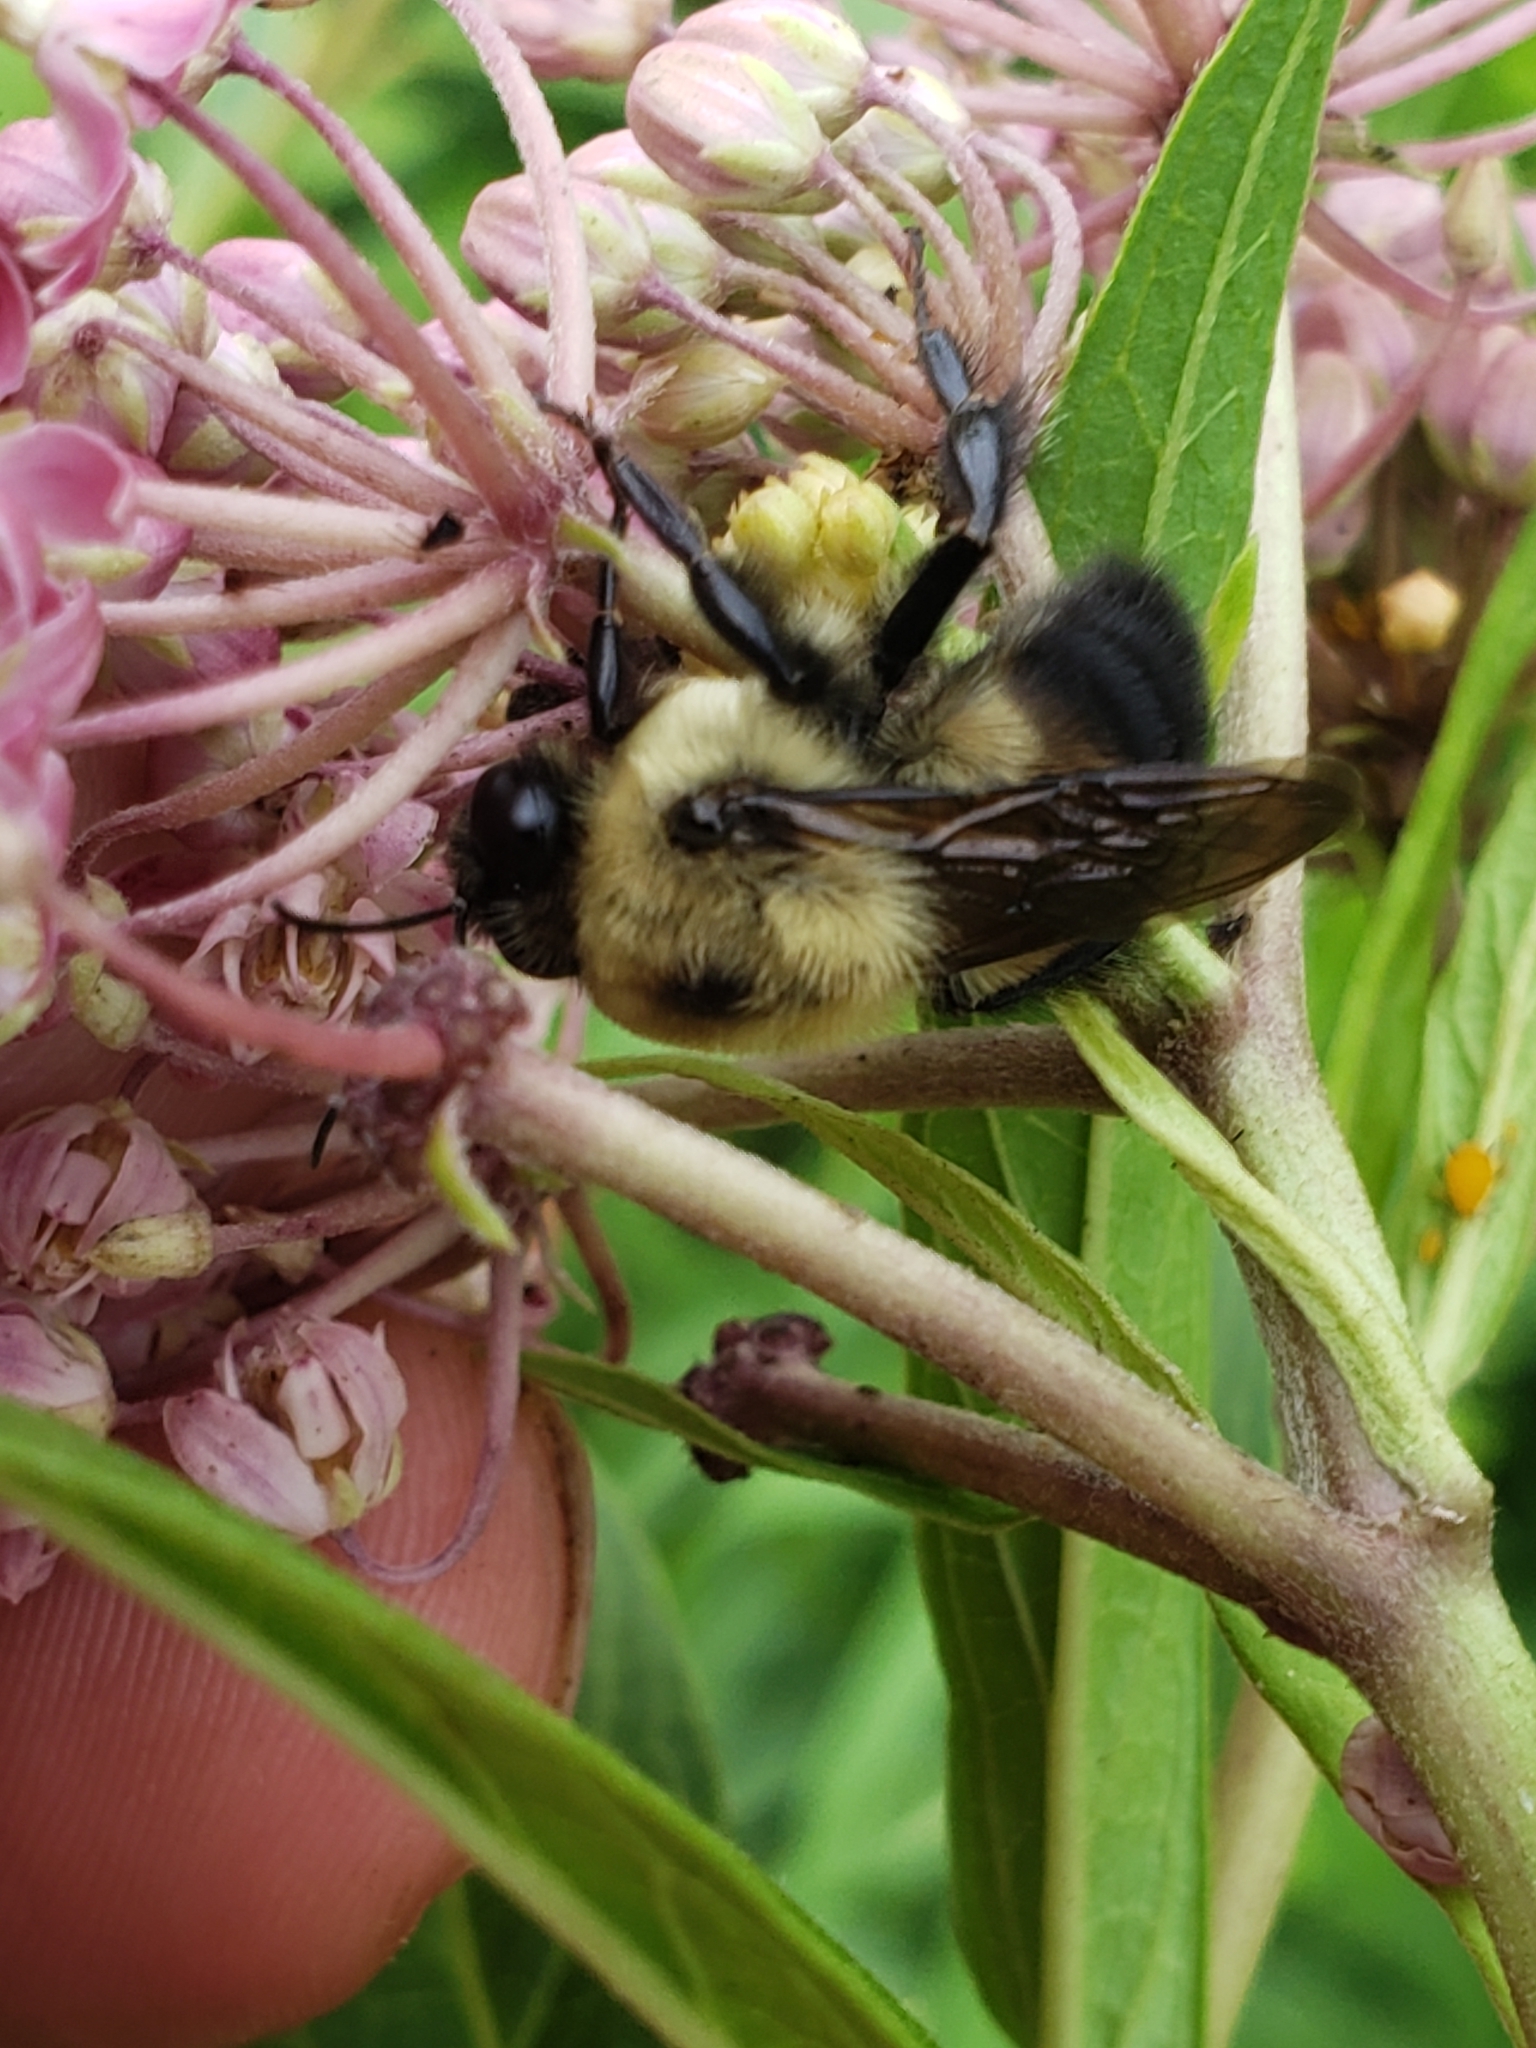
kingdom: Animalia
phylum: Arthropoda
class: Insecta
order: Hymenoptera
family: Apidae
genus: Bombus
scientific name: Bombus griseocollis
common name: Brown-belted bumble bee
